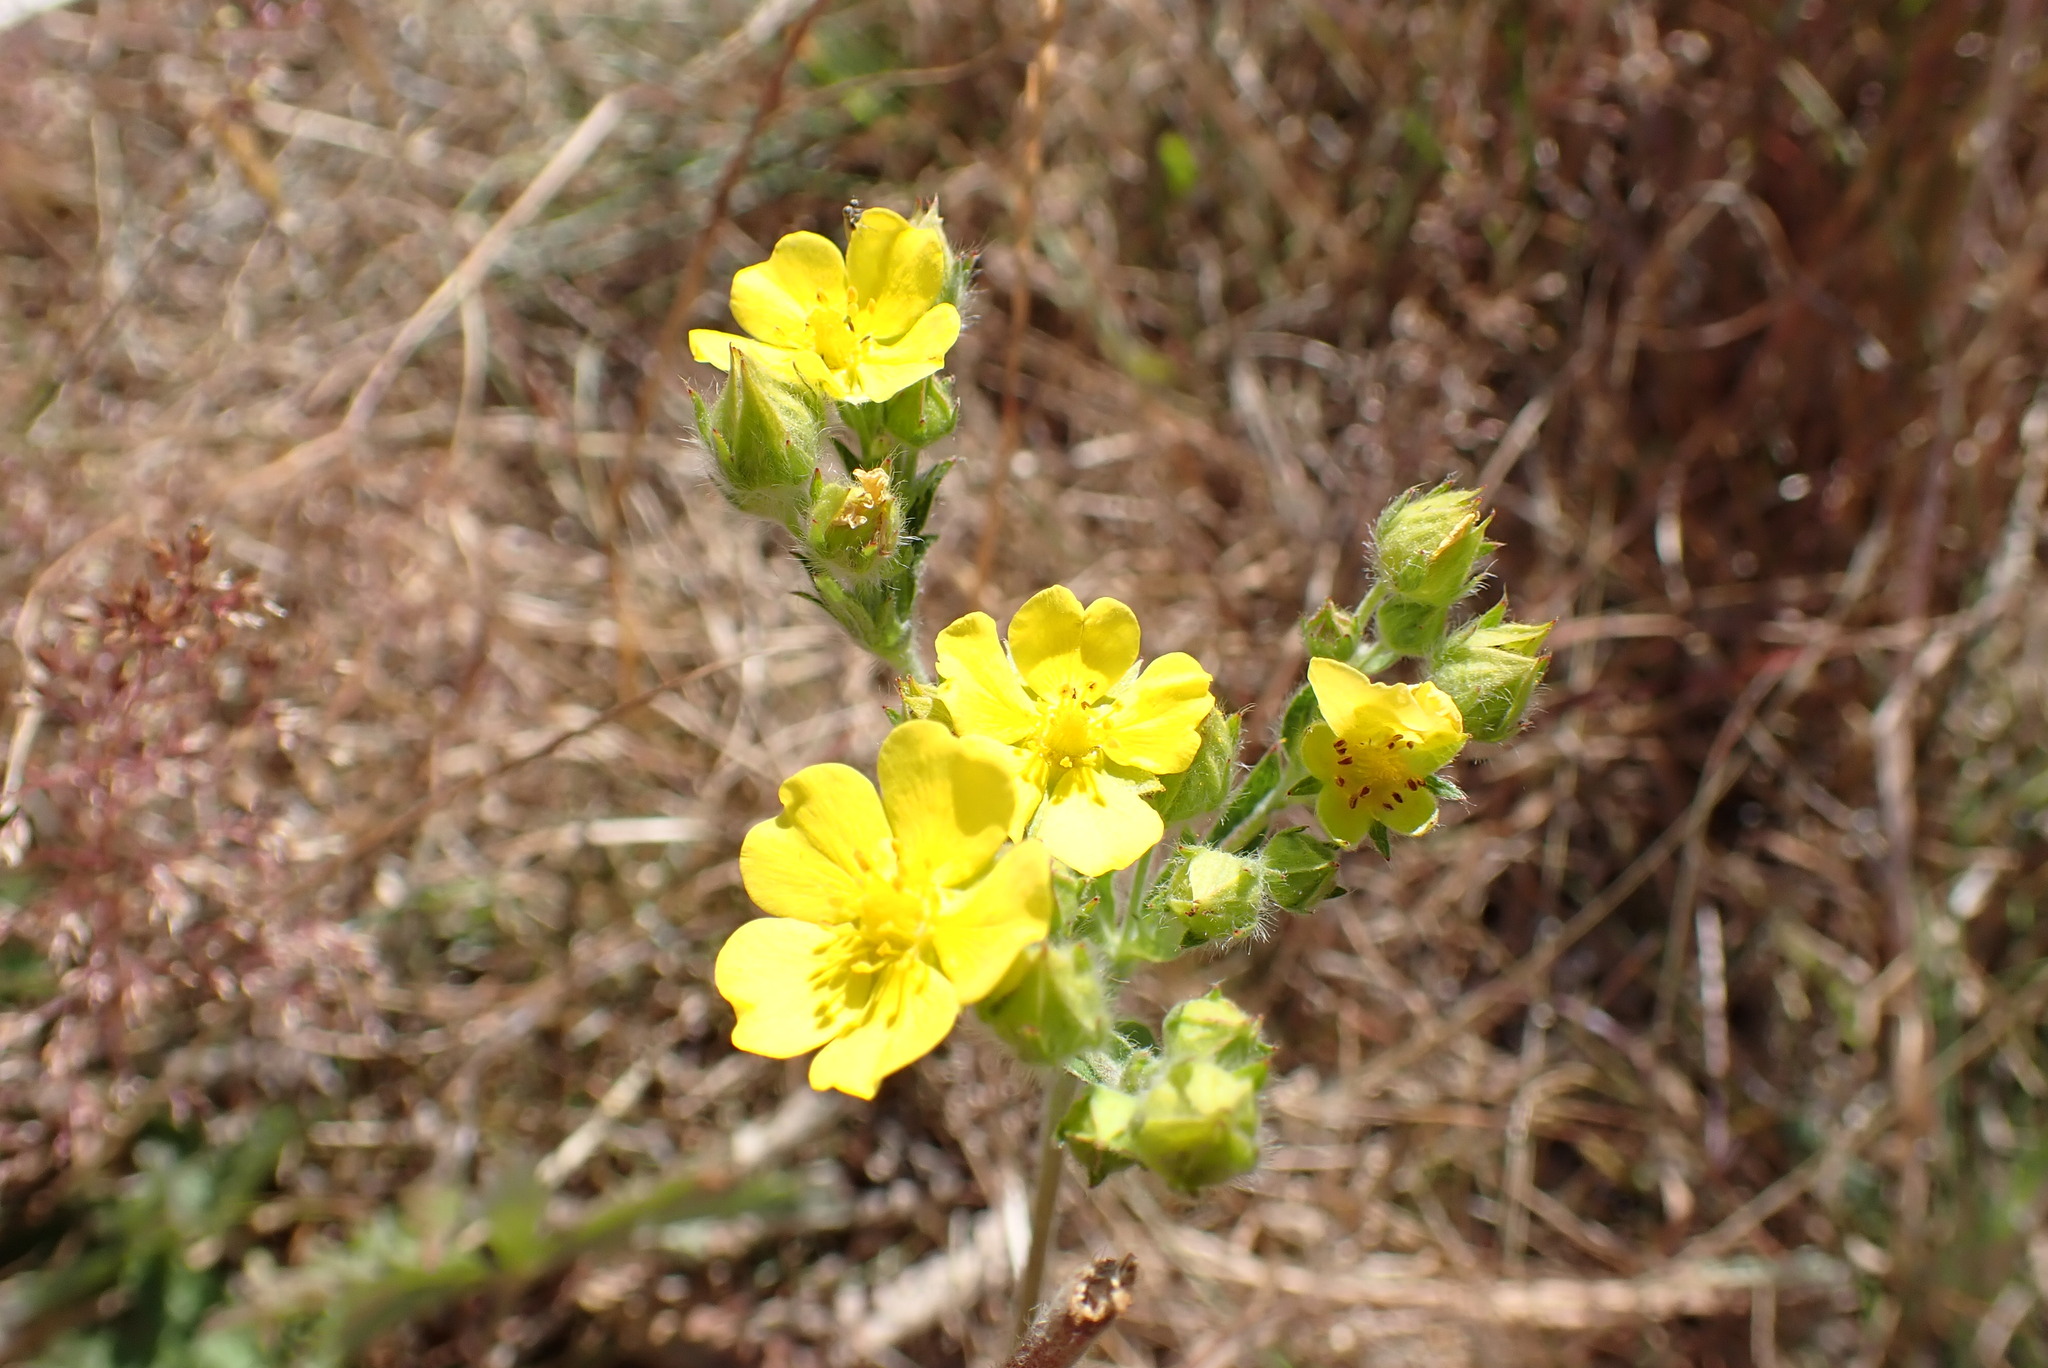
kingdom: Plantae
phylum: Tracheophyta
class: Magnoliopsida
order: Rosales
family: Rosaceae
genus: Potentilla
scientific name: Potentilla gracilis
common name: Graceful cinquefoil
